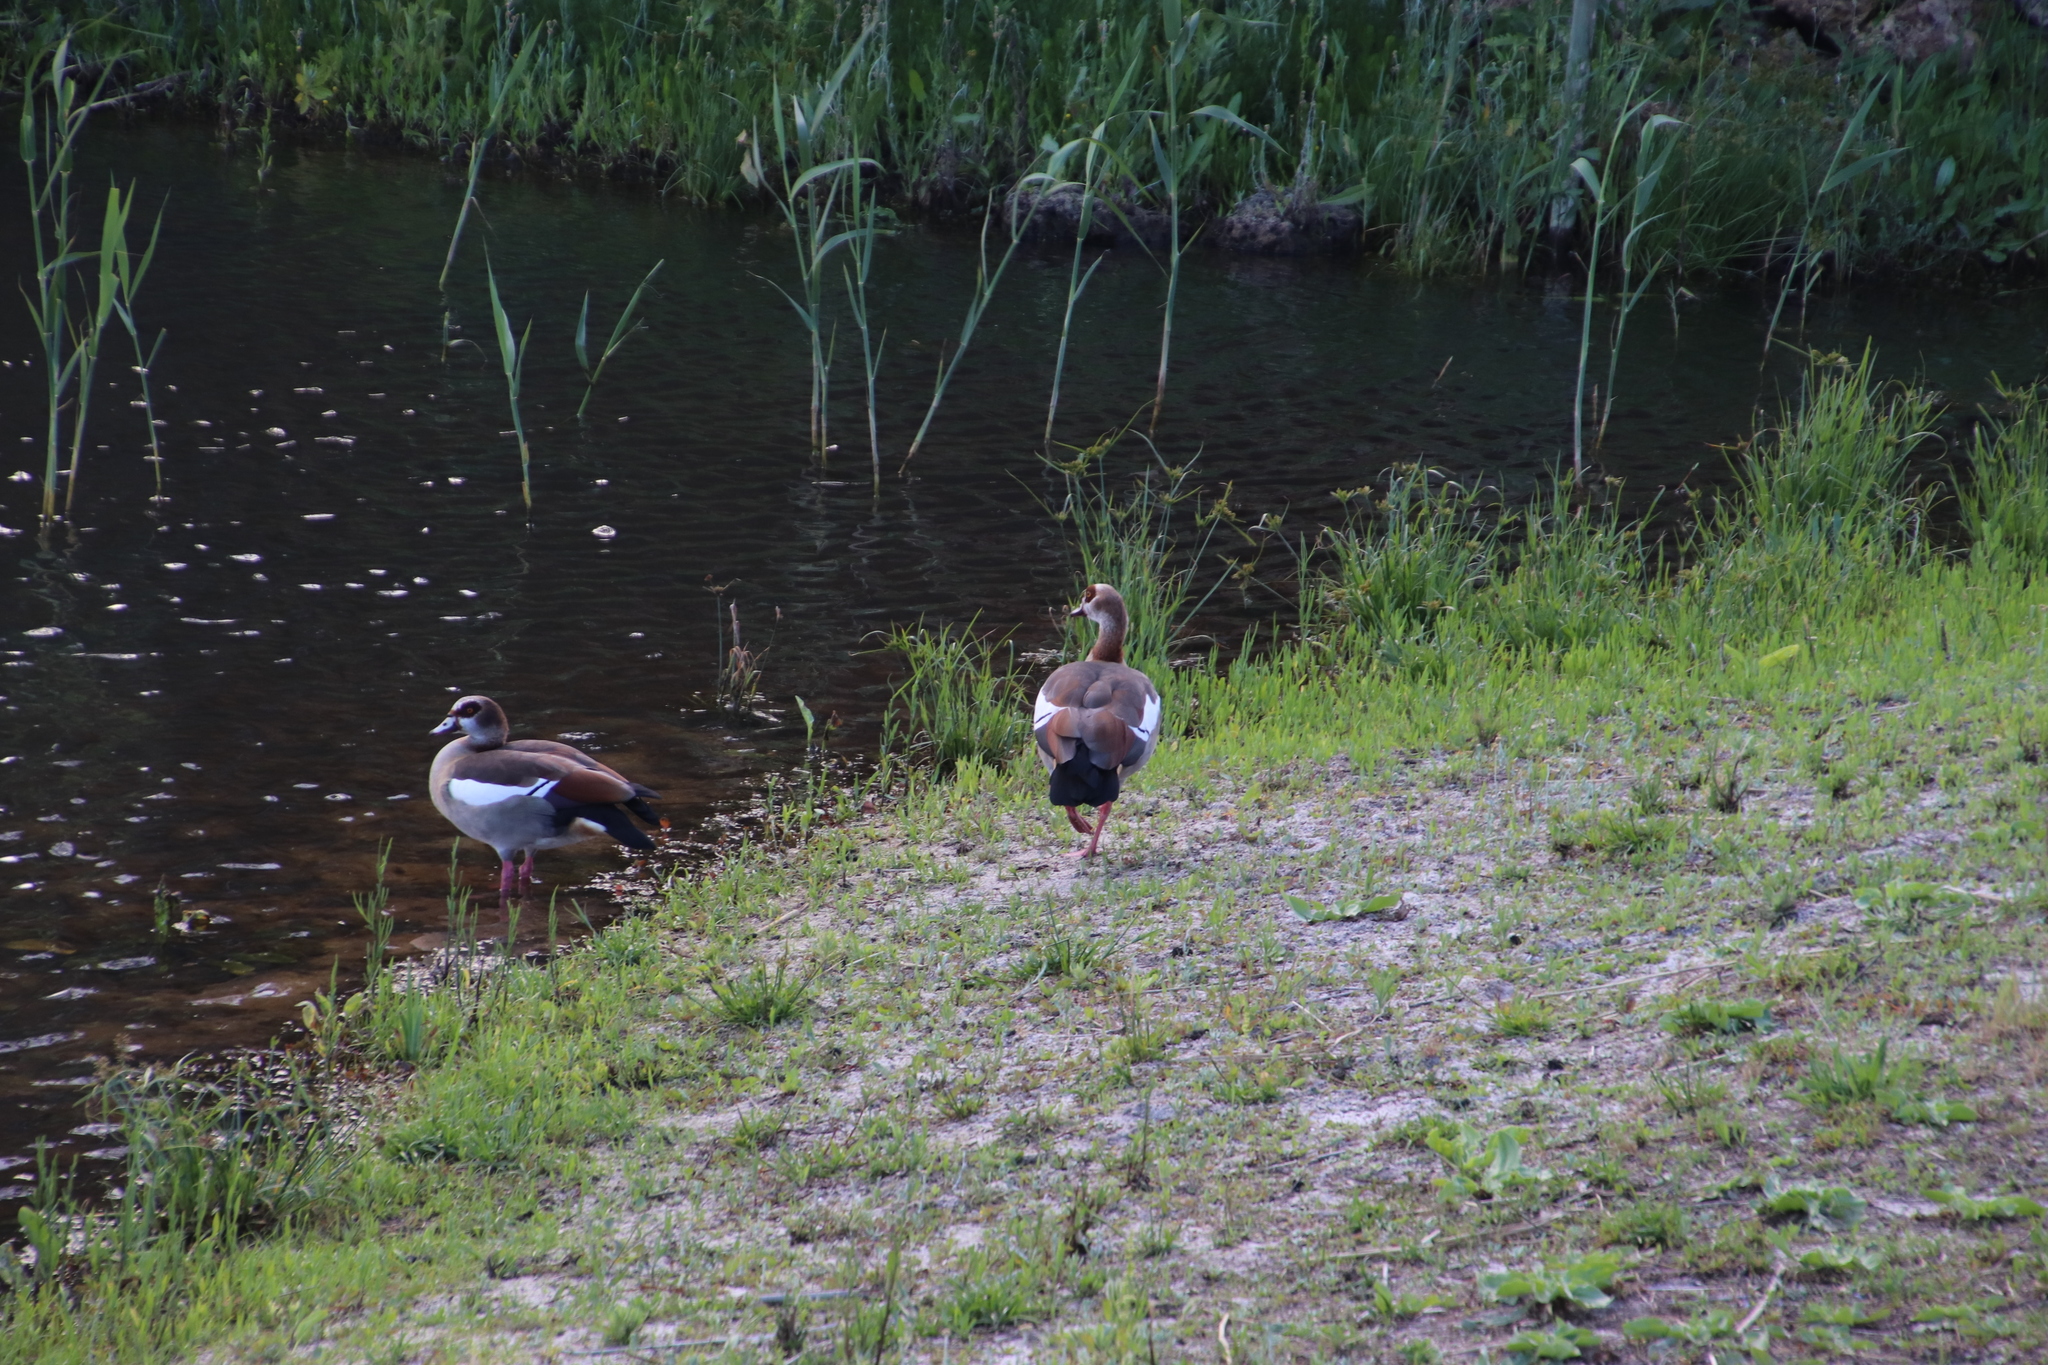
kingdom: Animalia
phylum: Chordata
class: Aves
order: Anseriformes
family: Anatidae
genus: Alopochen
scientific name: Alopochen aegyptiaca
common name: Egyptian goose
